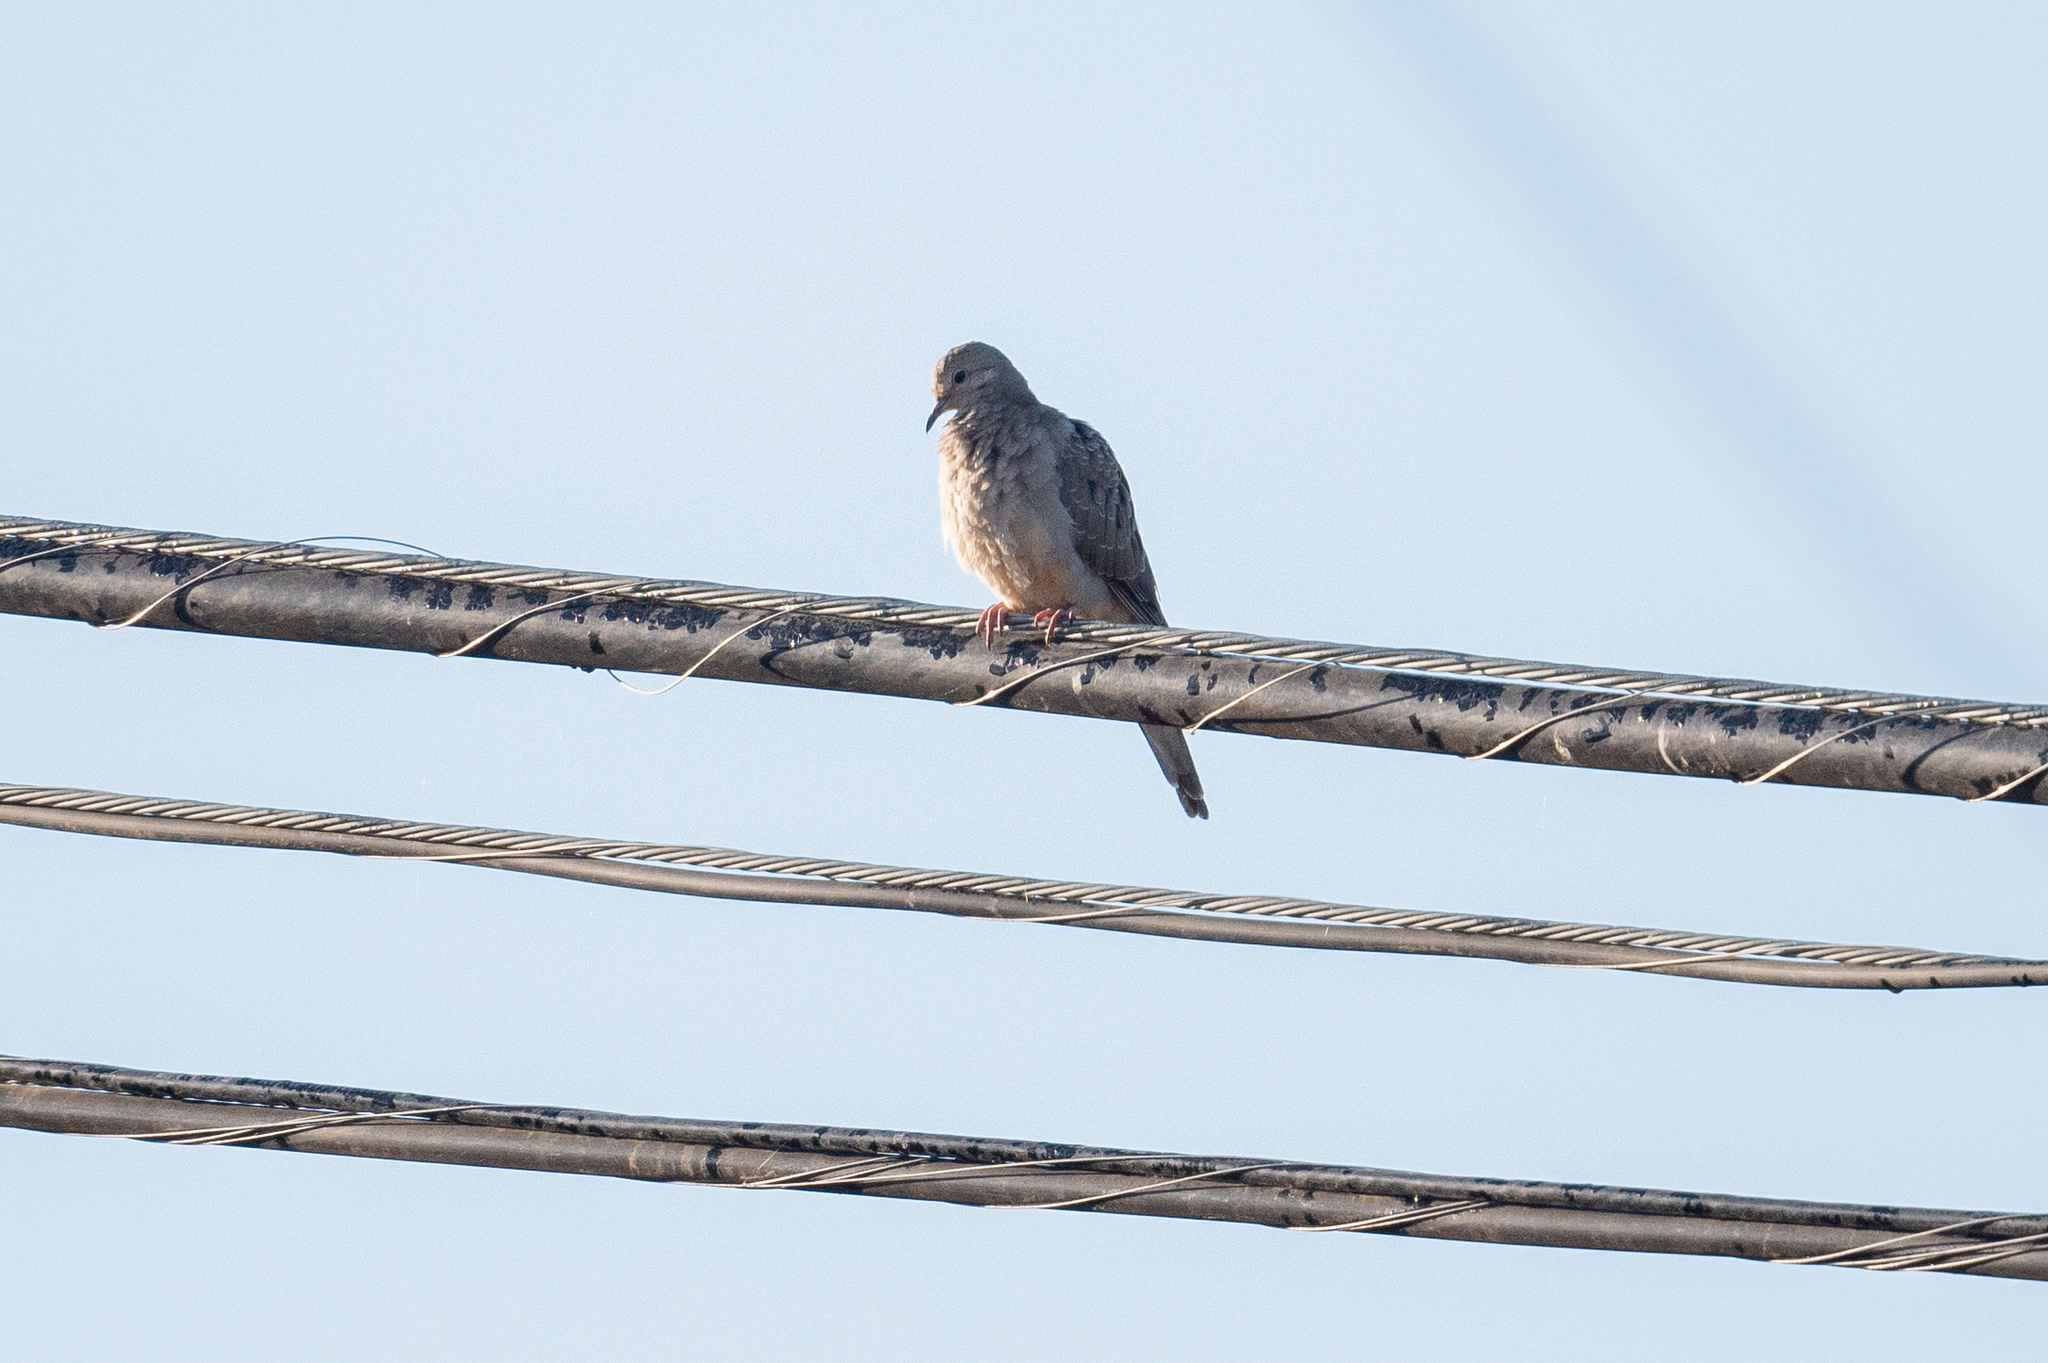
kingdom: Animalia
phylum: Chordata
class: Aves
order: Columbiformes
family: Columbidae
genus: Zenaida
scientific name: Zenaida macroura
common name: Mourning dove
